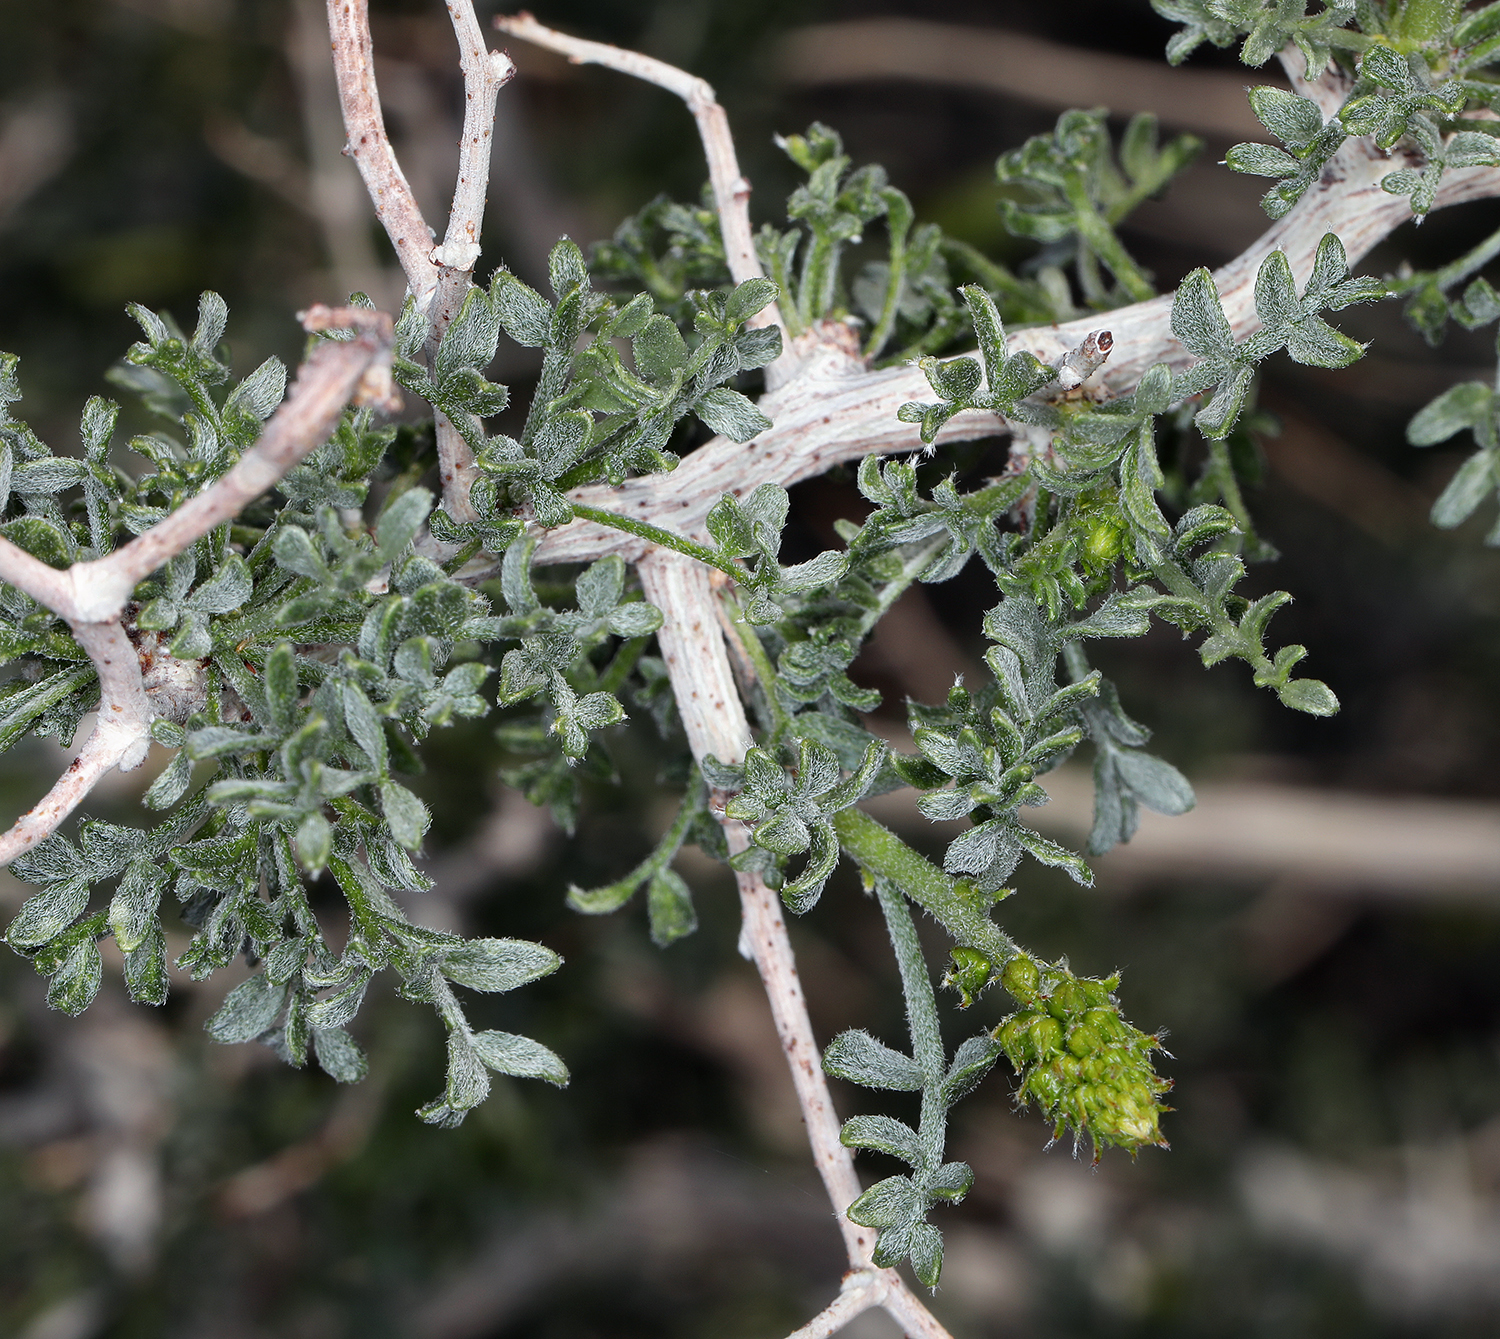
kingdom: Plantae
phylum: Tracheophyta
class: Magnoliopsida
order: Fabales
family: Fabaceae
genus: Psorothamnus
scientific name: Psorothamnus arborescens
